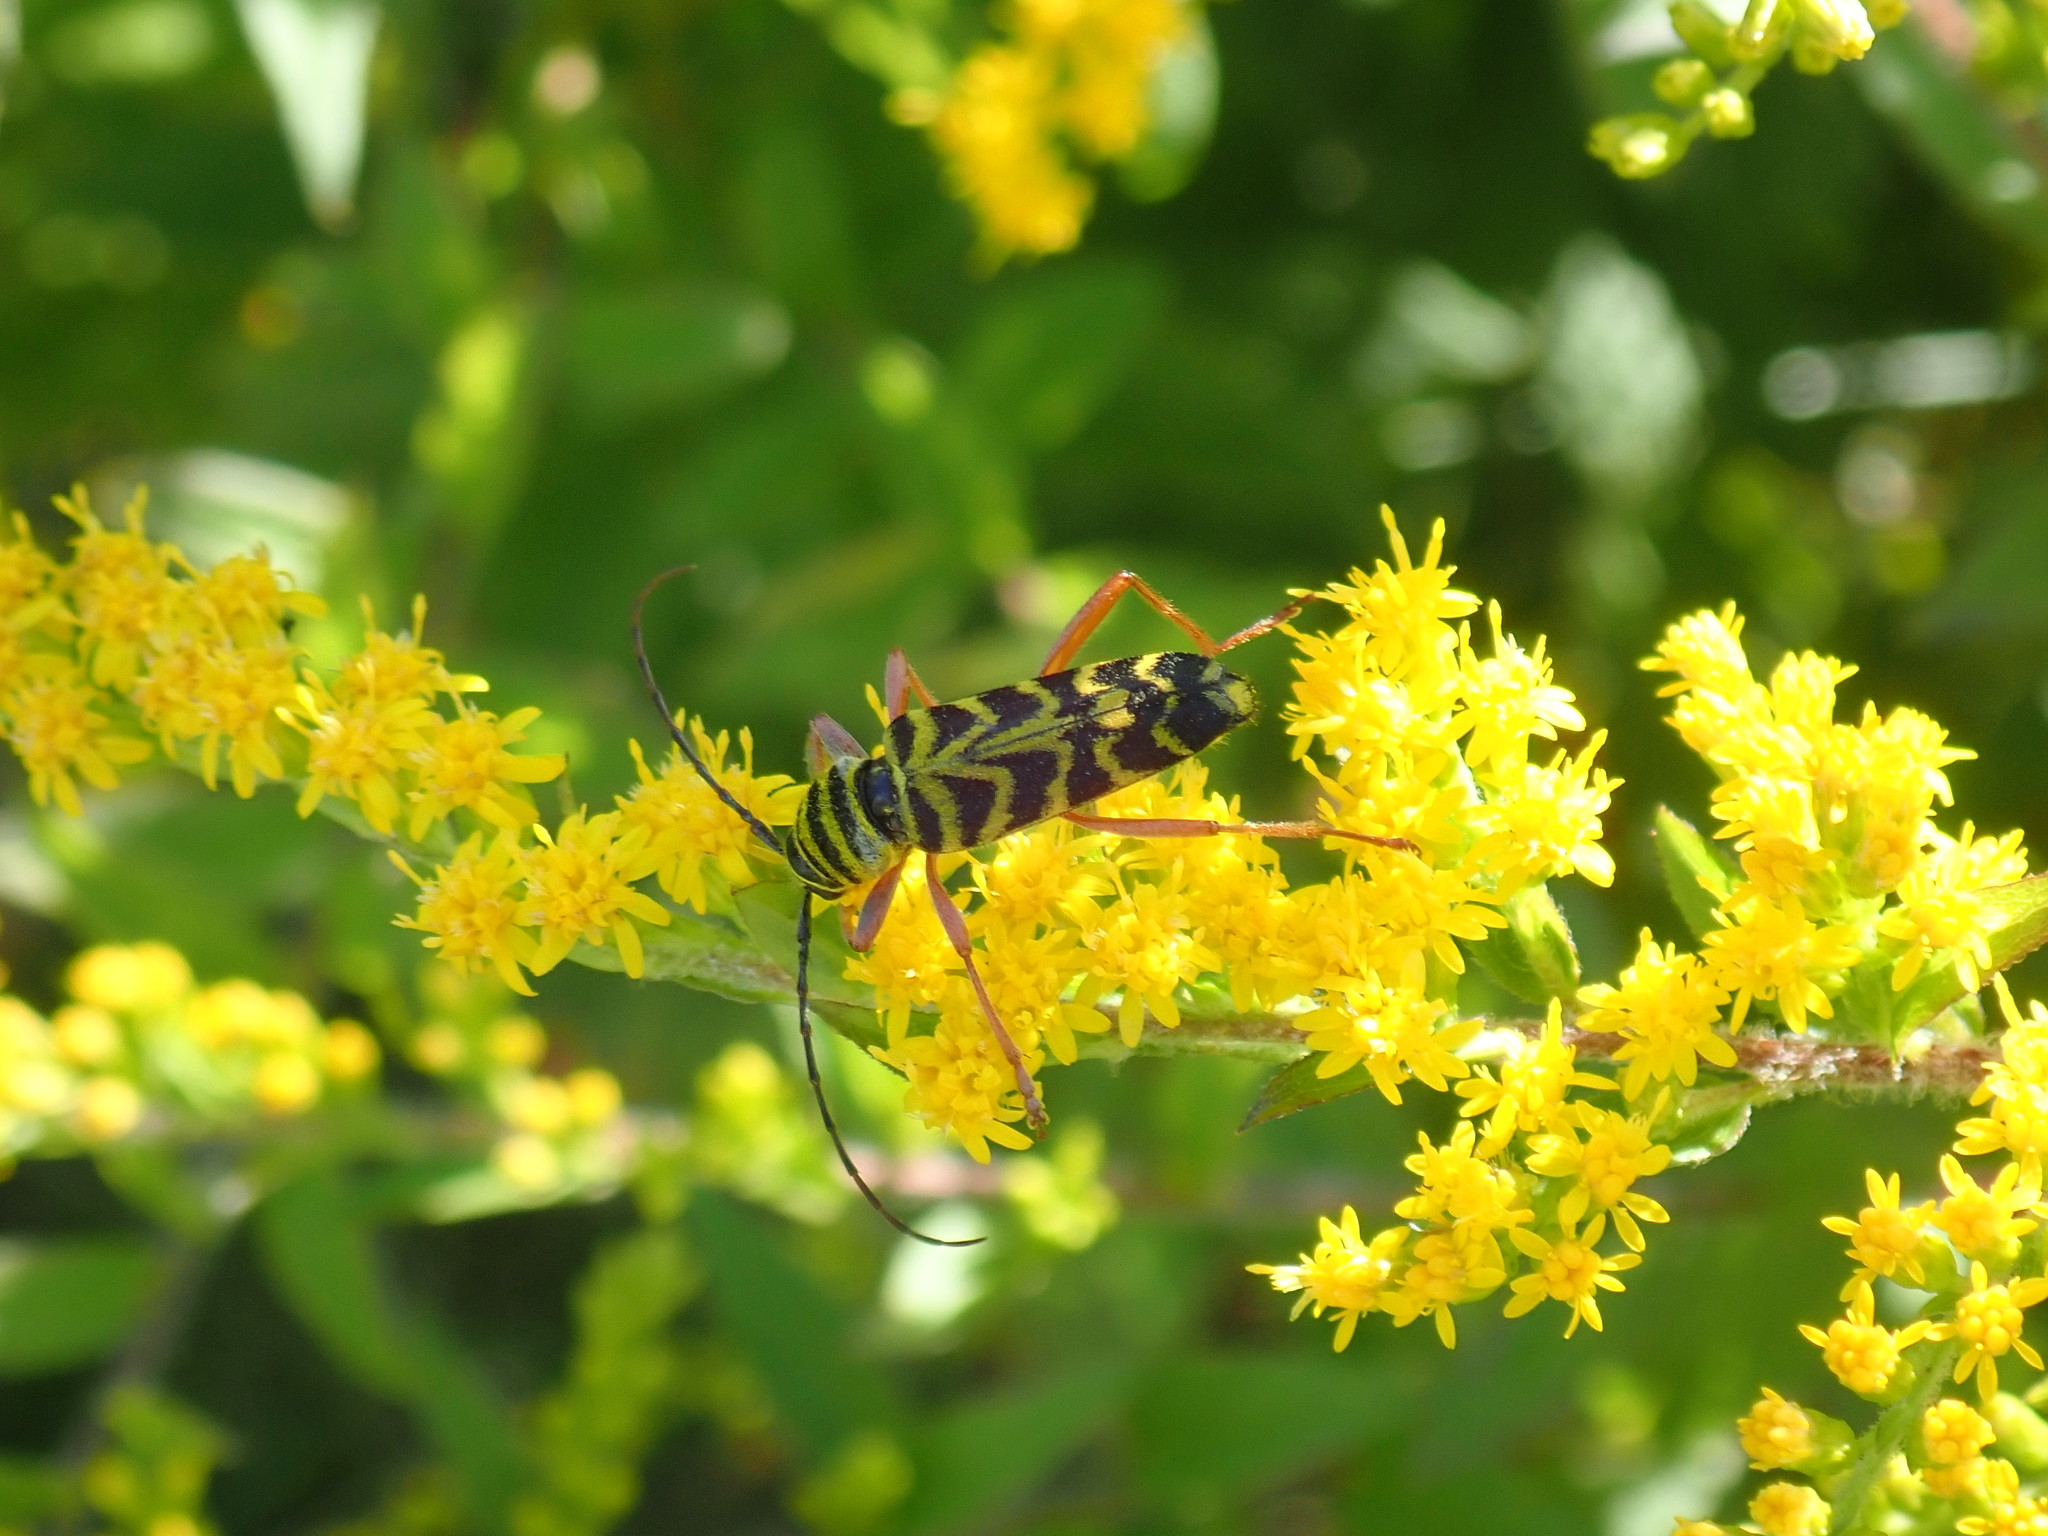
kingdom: Animalia
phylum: Arthropoda
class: Insecta
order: Coleoptera
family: Cerambycidae
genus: Megacyllene
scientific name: Megacyllene robiniae
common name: Locust borer
